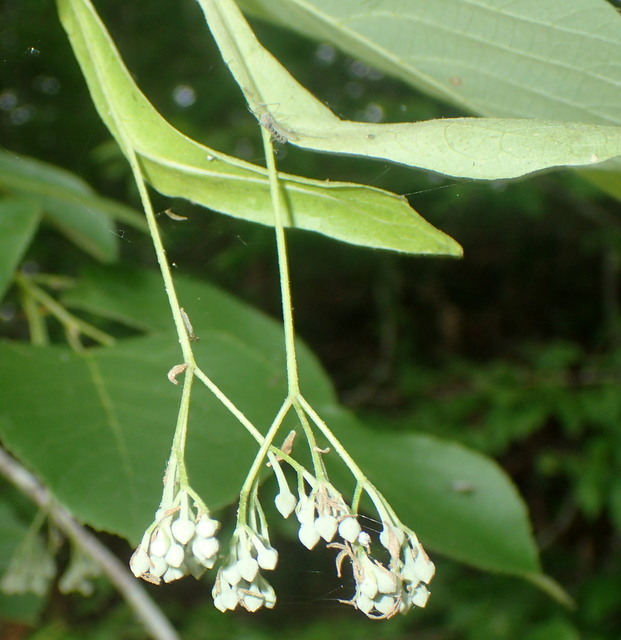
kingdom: Plantae
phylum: Tracheophyta
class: Magnoliopsida
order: Malvales
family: Malvaceae
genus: Tilia
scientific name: Tilia americana
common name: Basswood
